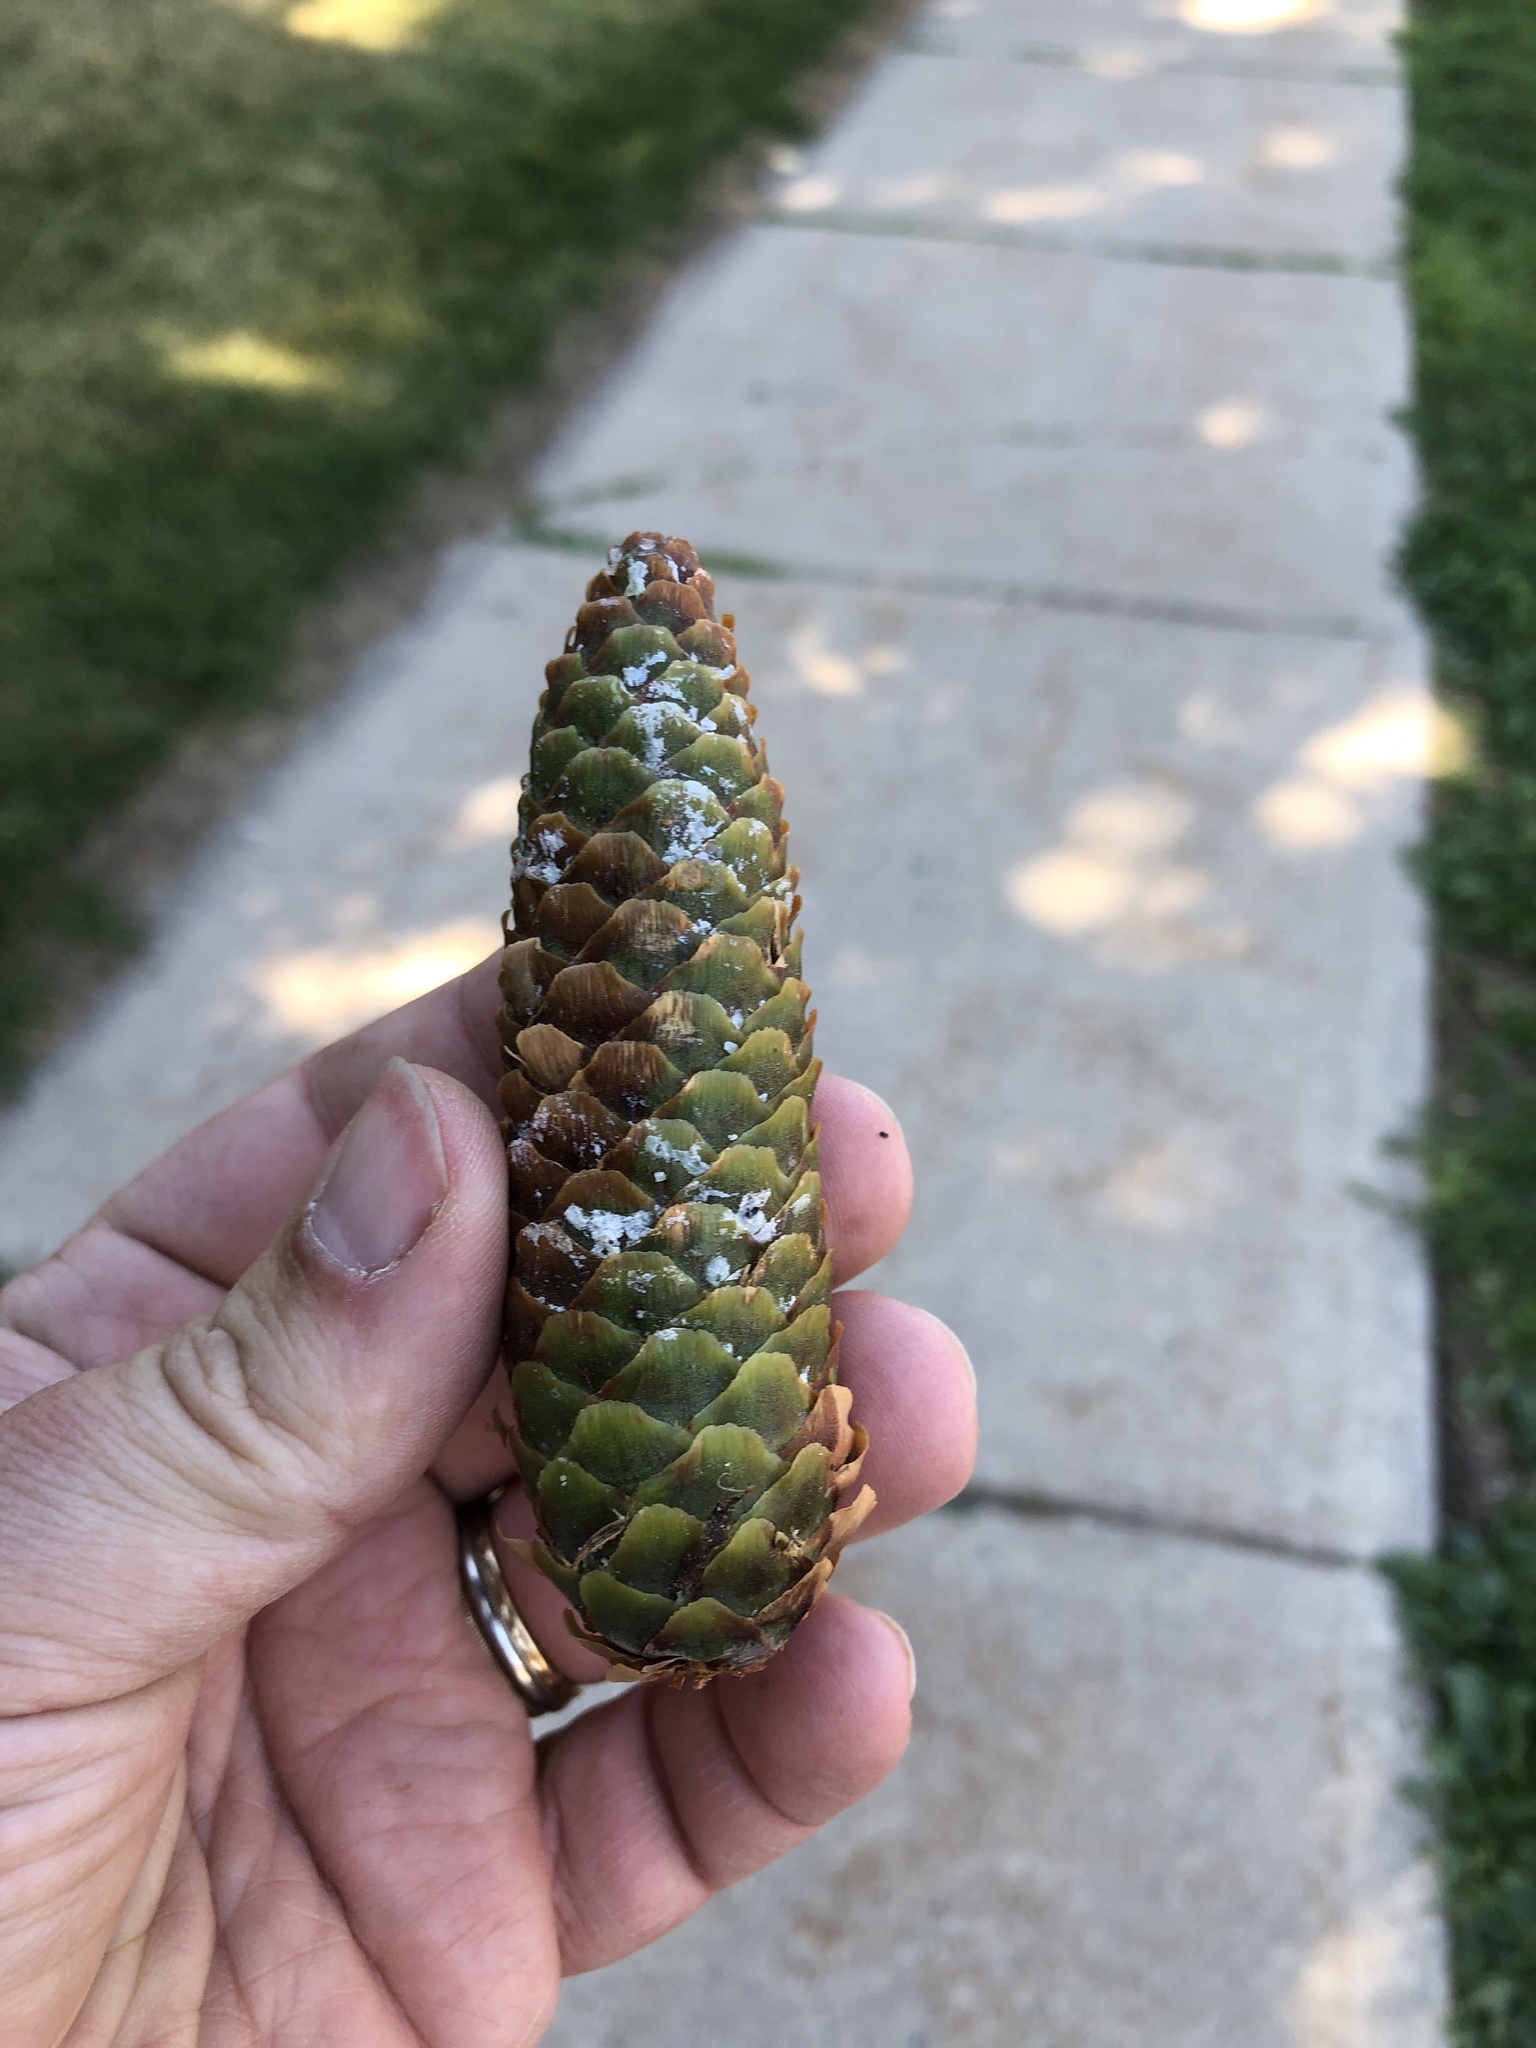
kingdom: Plantae
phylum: Tracheophyta
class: Pinopsida
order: Pinales
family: Pinaceae
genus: Picea
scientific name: Picea abies
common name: Norway spruce
